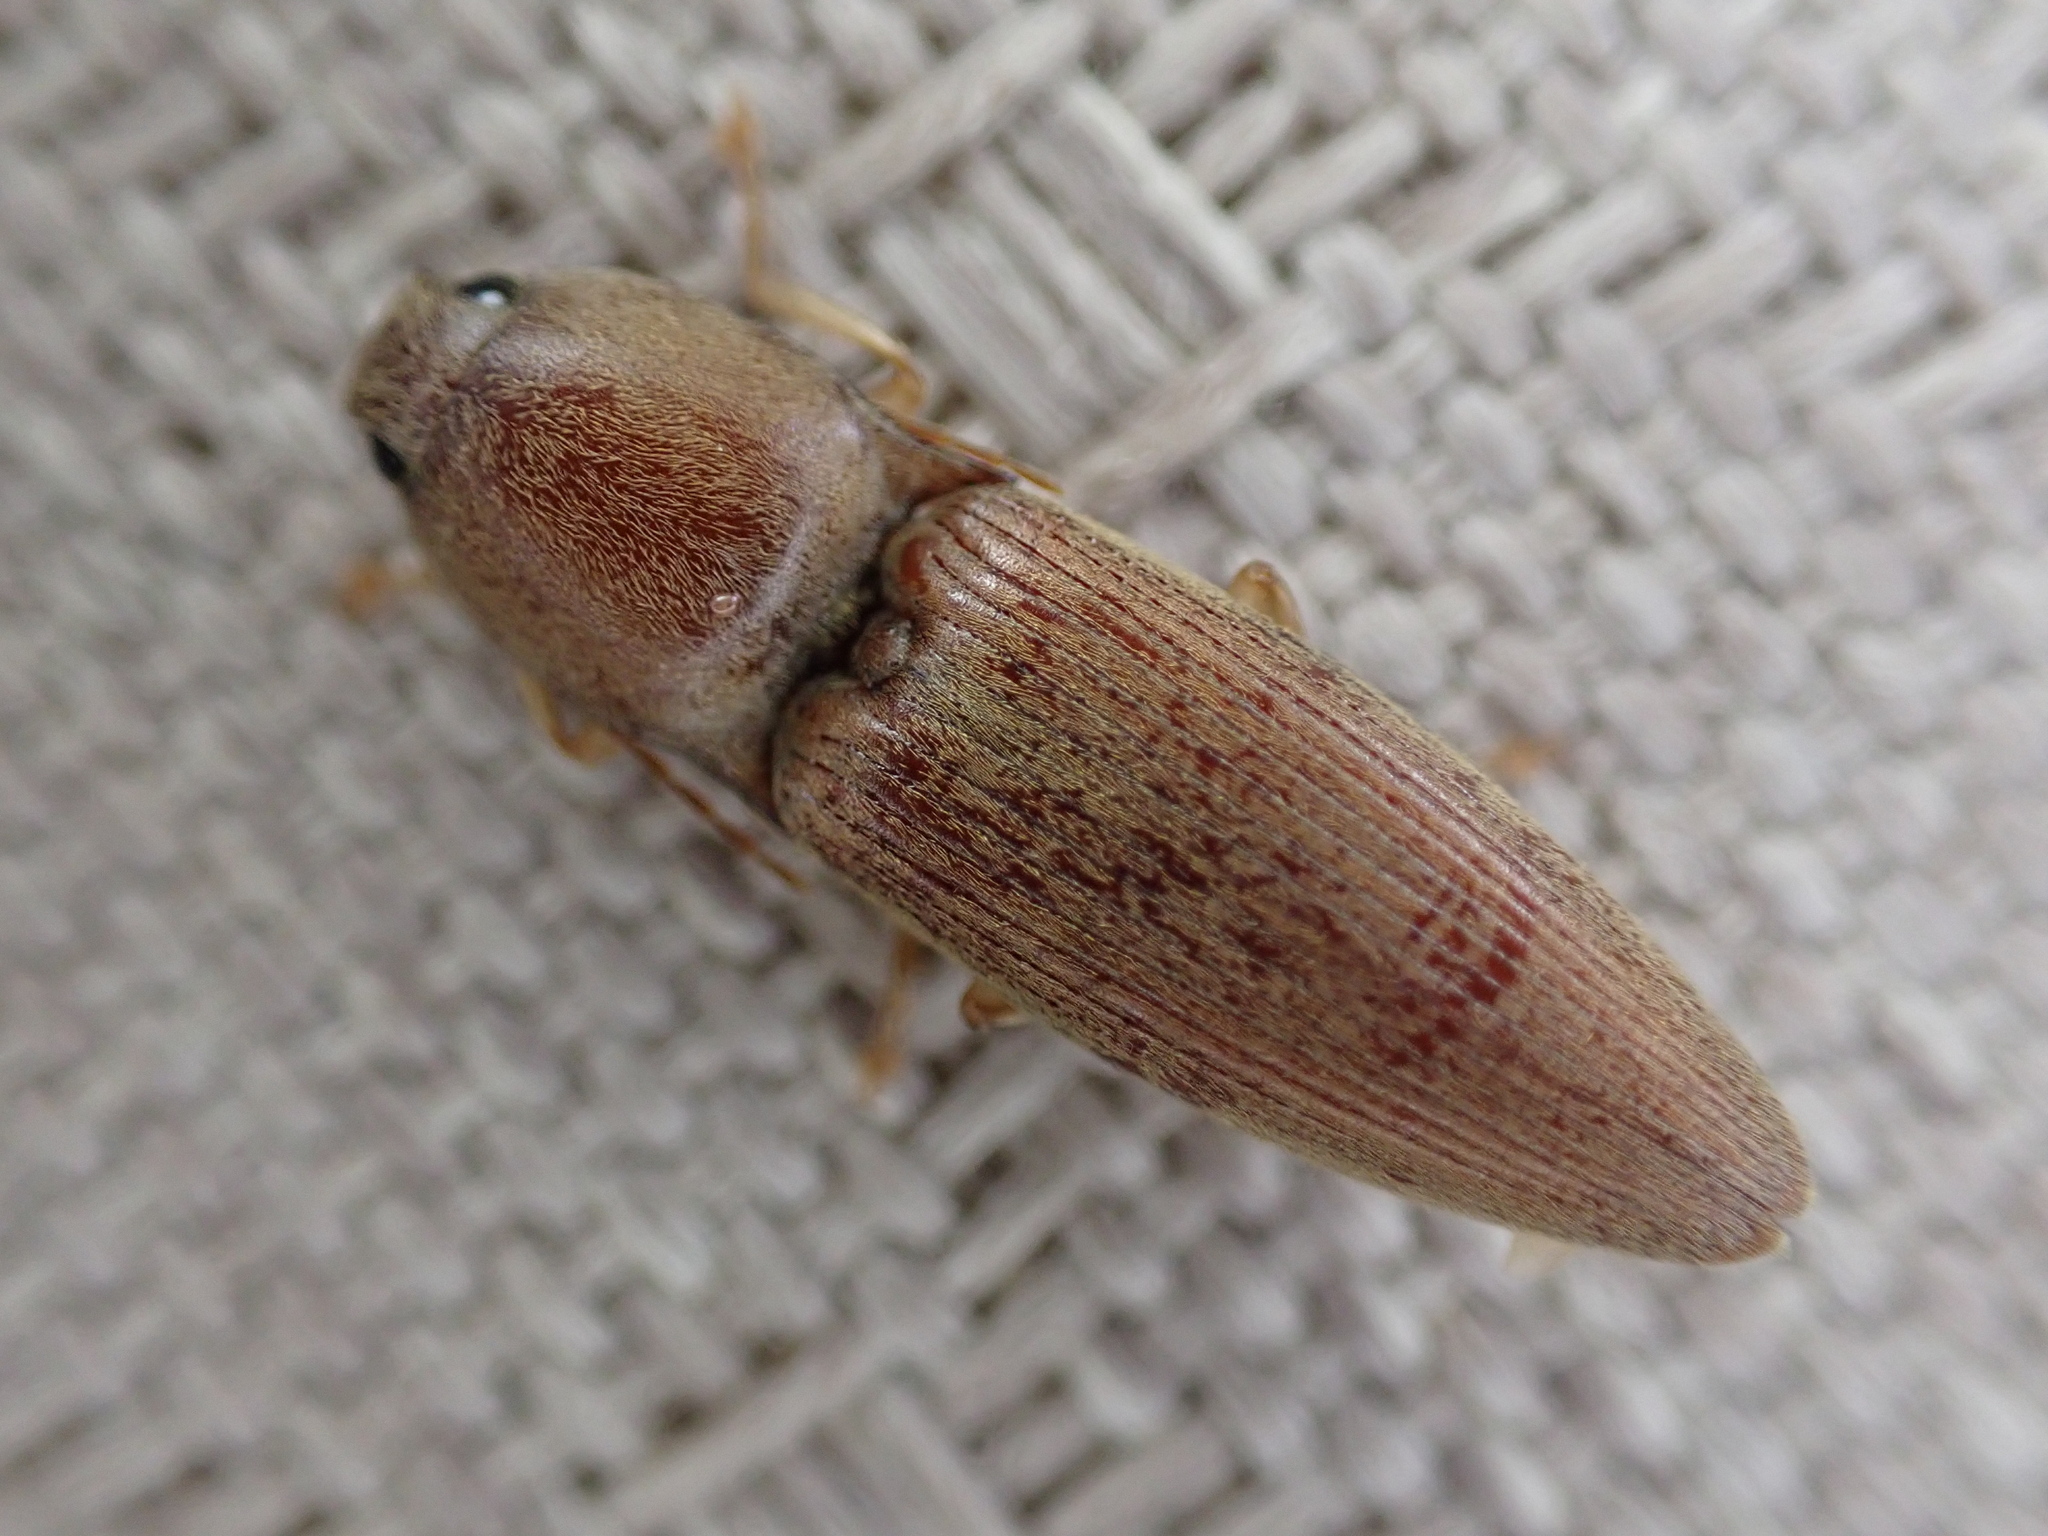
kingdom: Animalia
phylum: Arthropoda
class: Insecta
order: Coleoptera
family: Elateridae
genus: Monocrepidius
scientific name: Monocrepidius lividus
